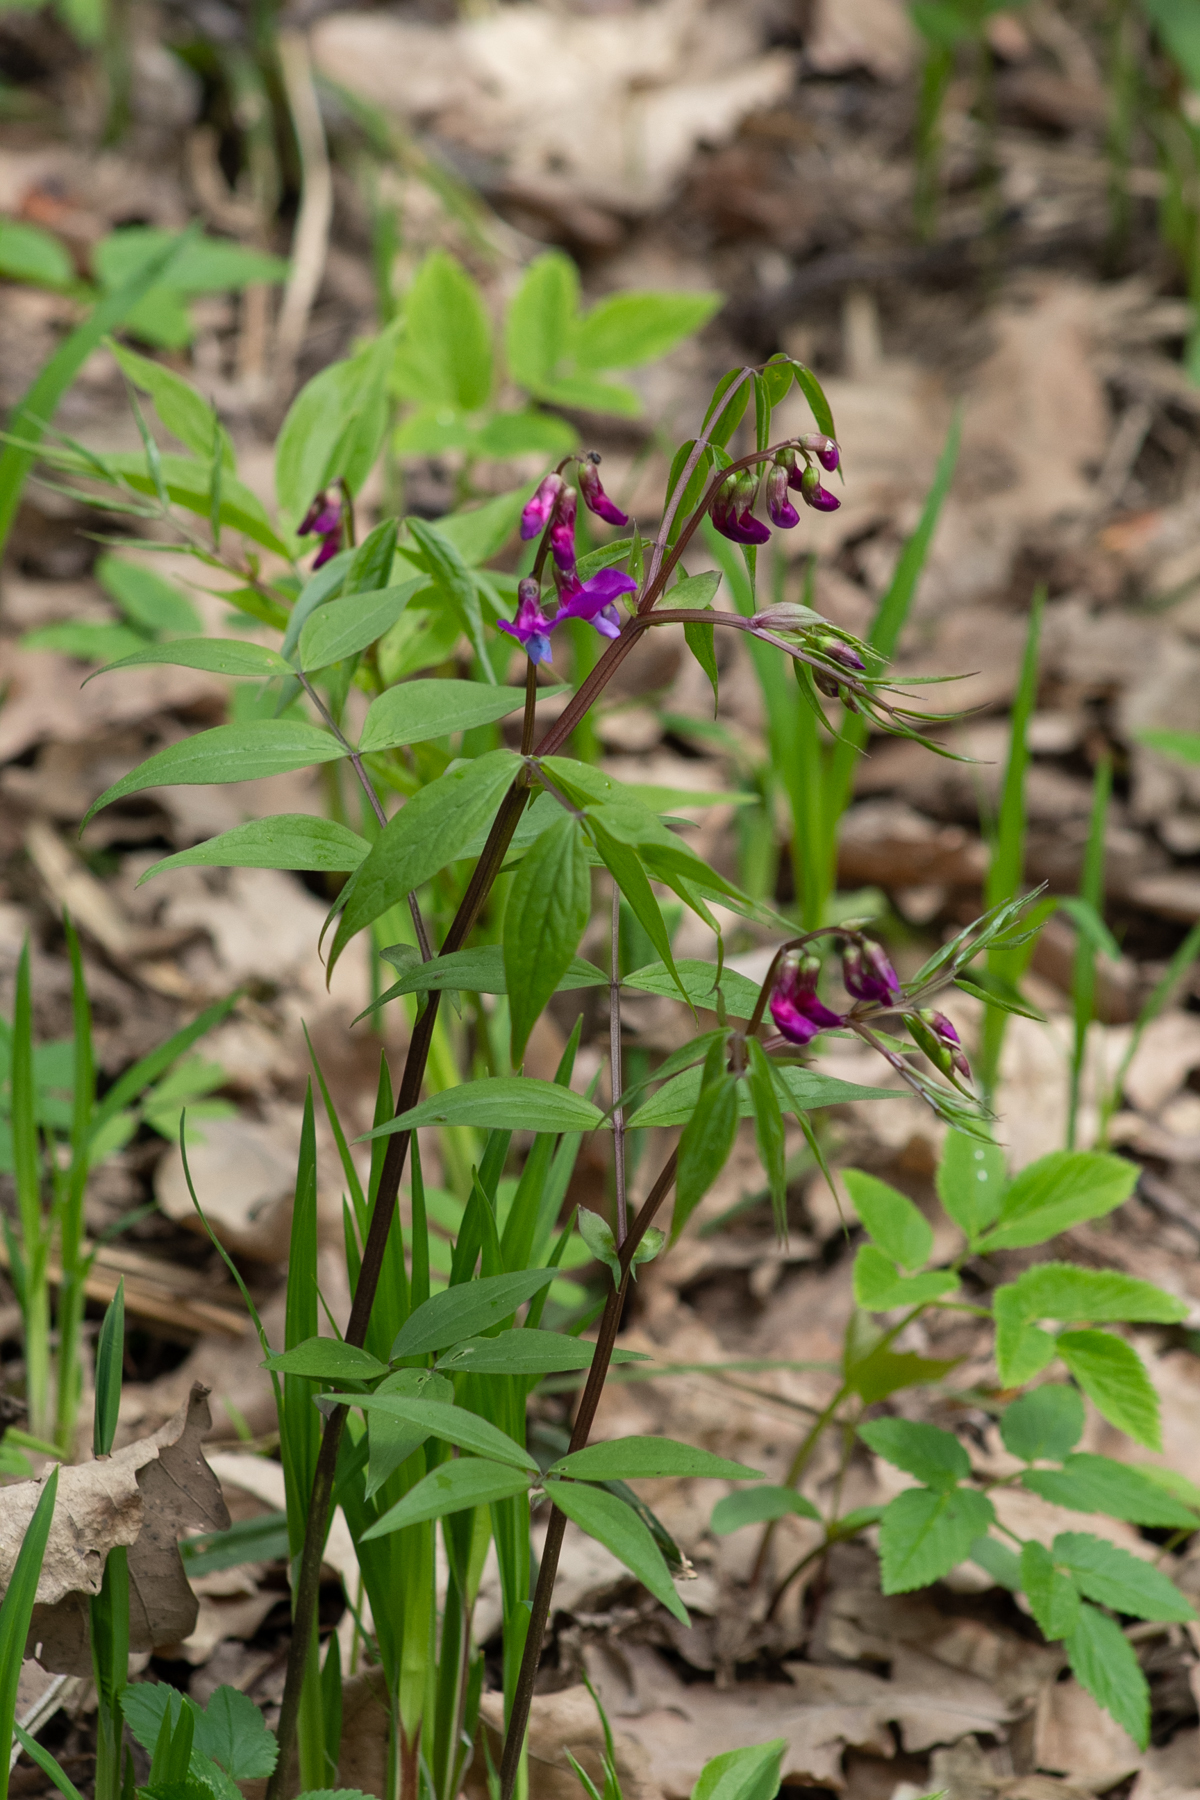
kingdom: Plantae
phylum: Tracheophyta
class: Magnoliopsida
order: Fabales
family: Fabaceae
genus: Lathyrus
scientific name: Lathyrus vernus
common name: Spring pea
